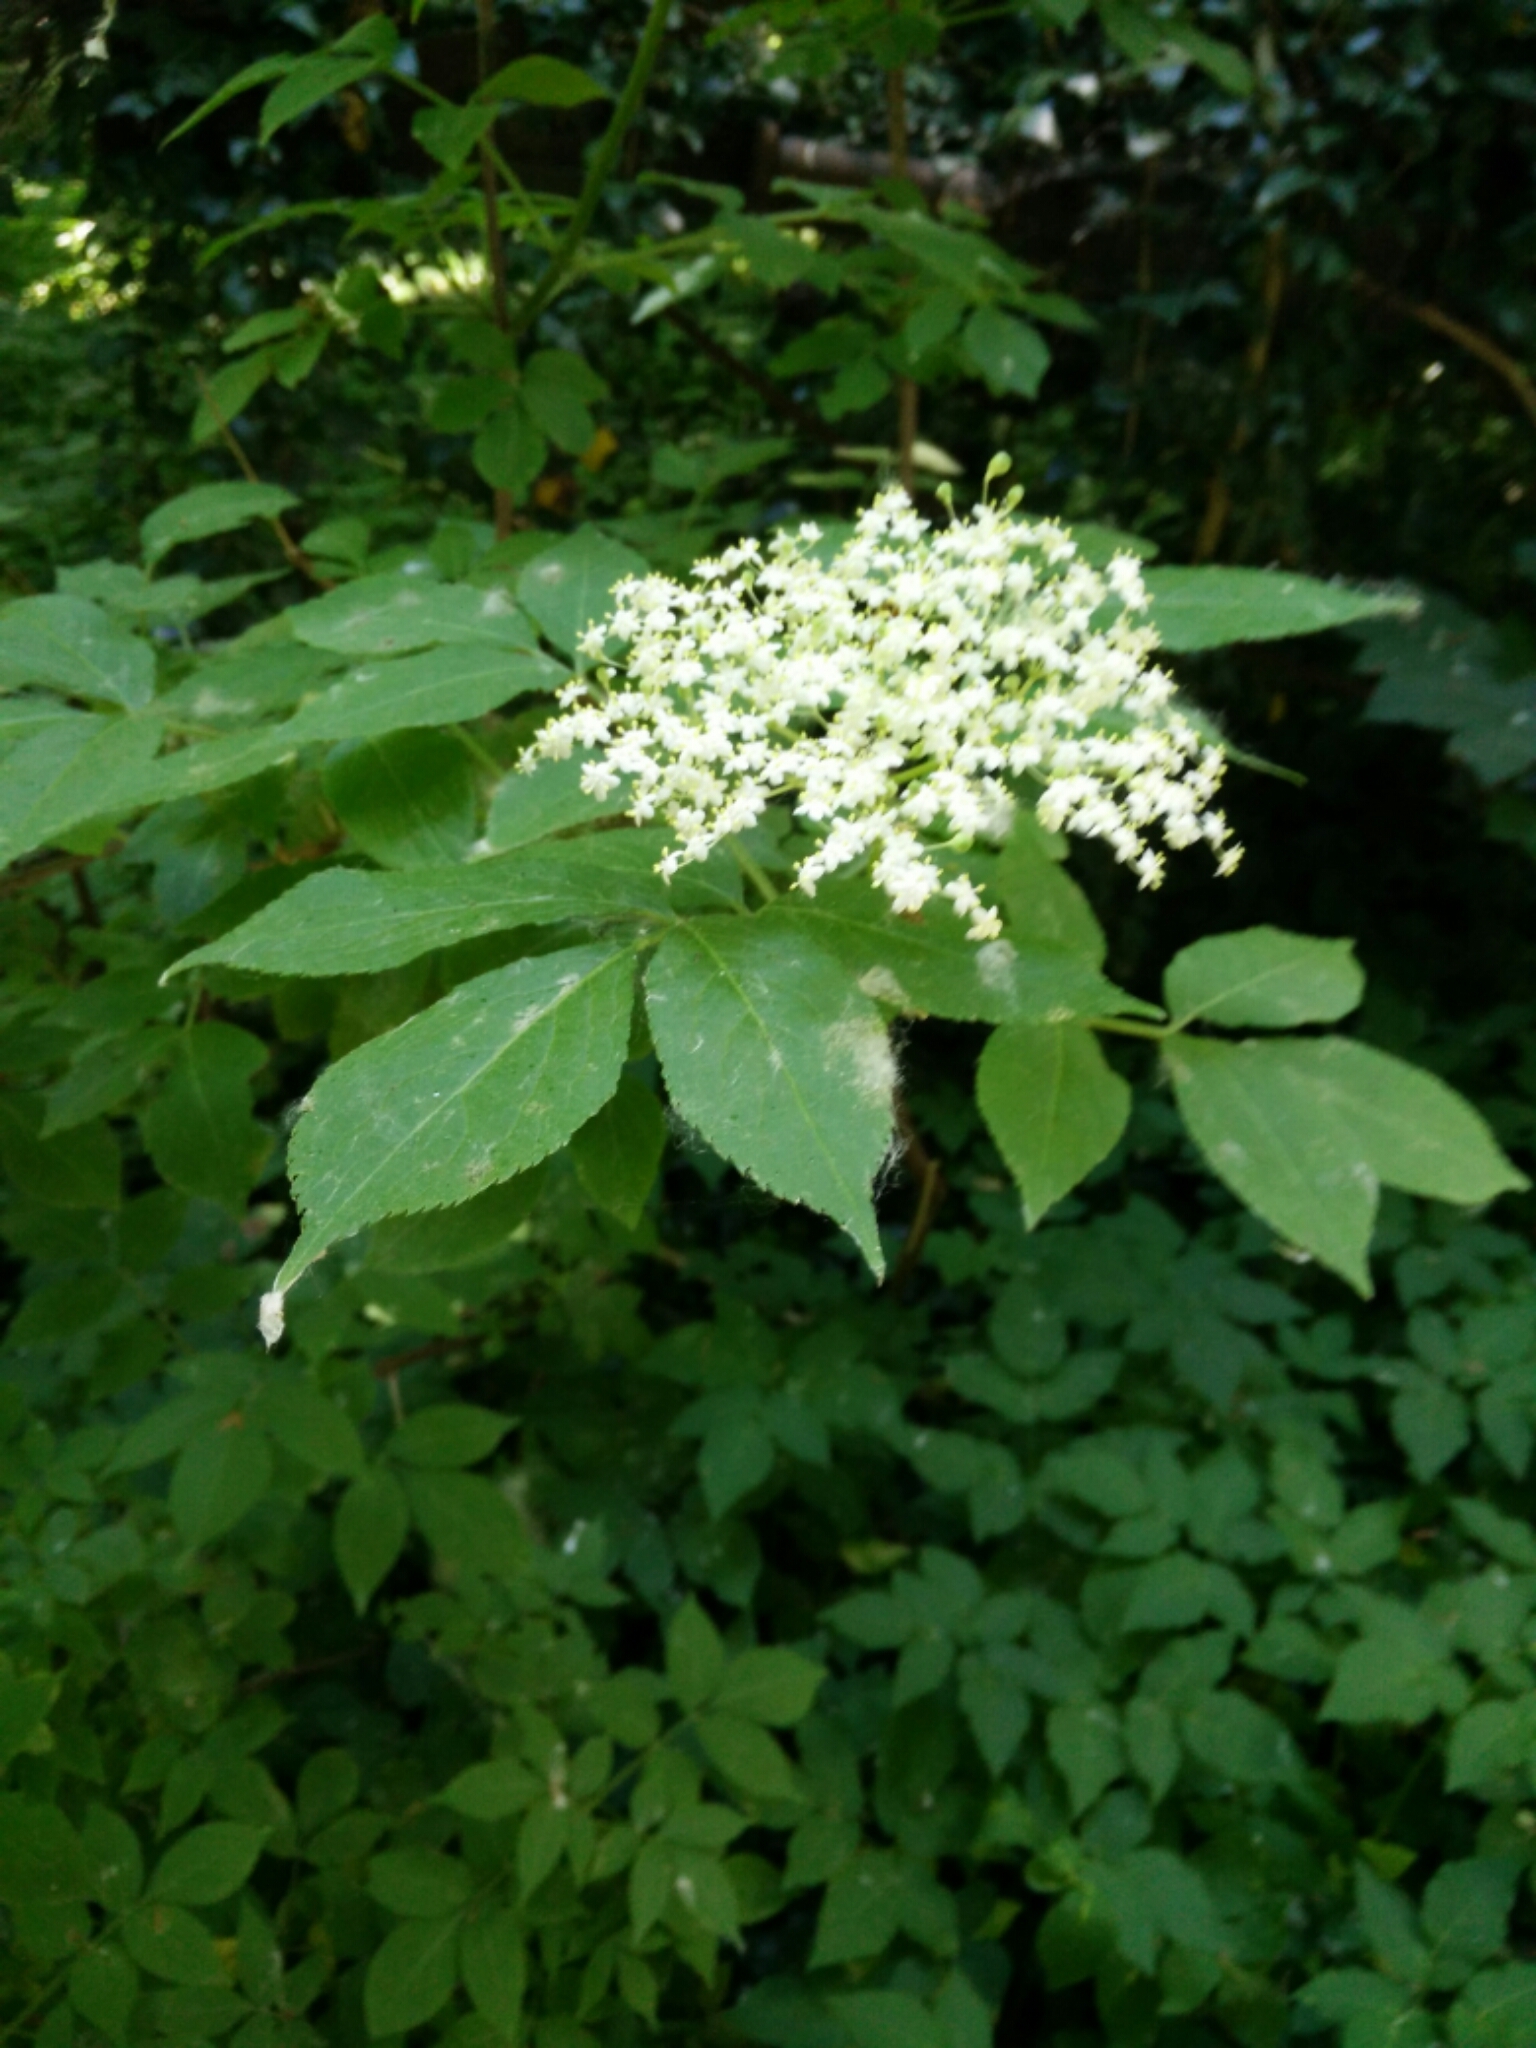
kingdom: Plantae
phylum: Tracheophyta
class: Magnoliopsida
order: Dipsacales
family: Viburnaceae
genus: Sambucus
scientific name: Sambucus nigra
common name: Elder
